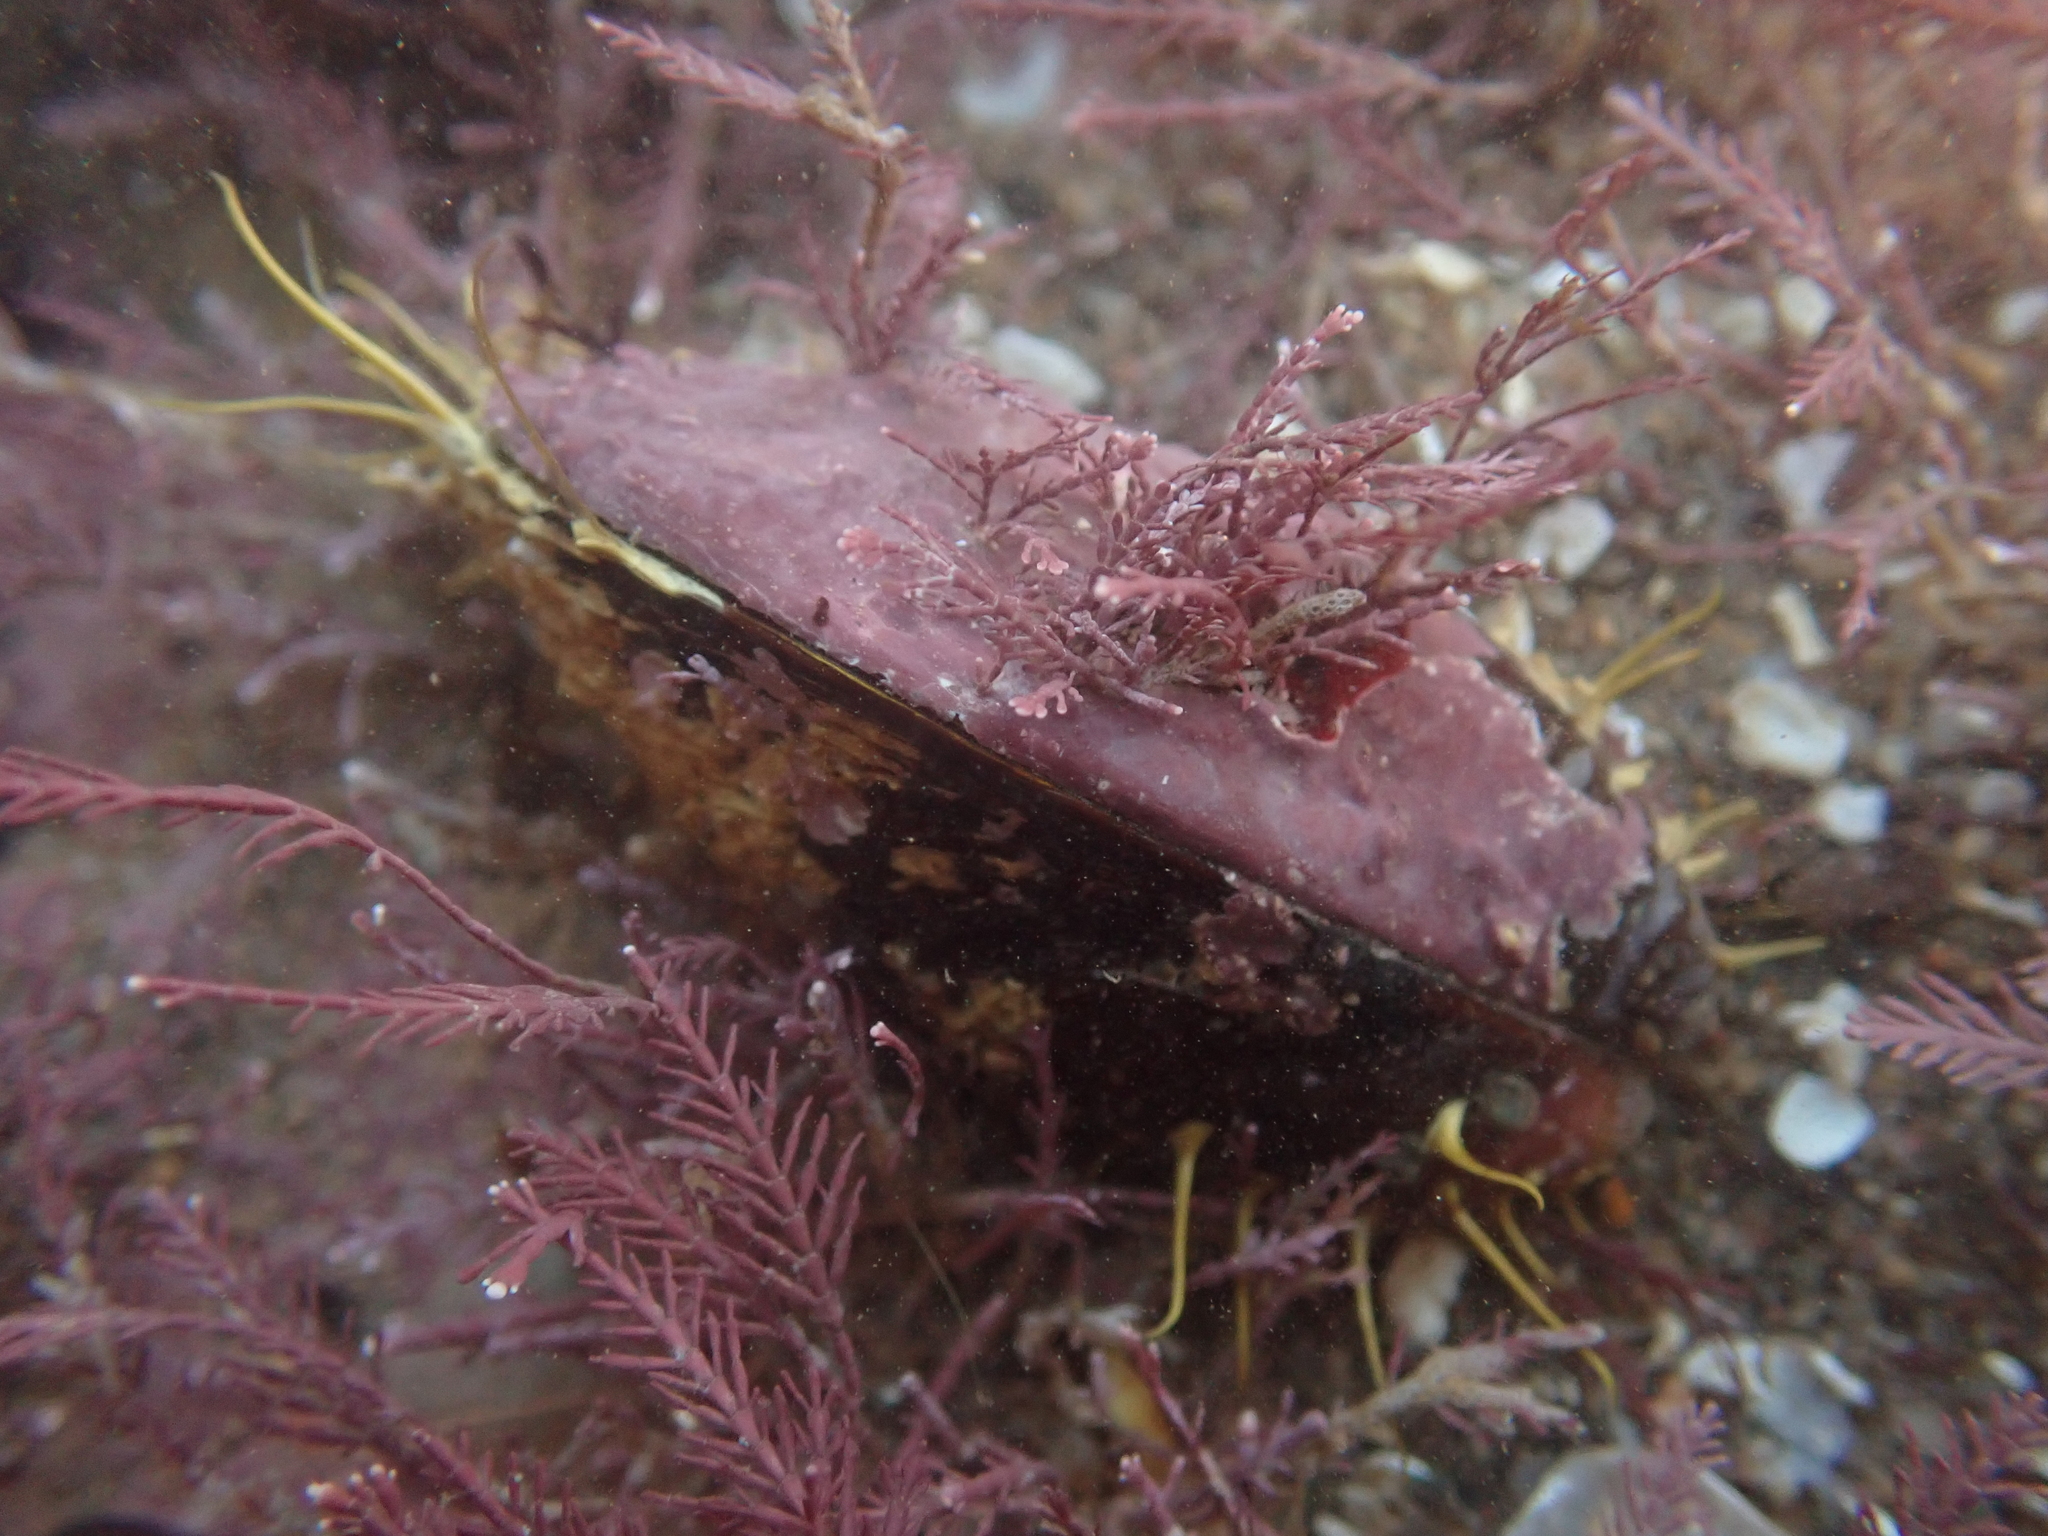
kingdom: Animalia
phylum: Mollusca
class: Bivalvia
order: Mytilida
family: Mytilidae
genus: Modiolus
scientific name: Modiolus modiolus
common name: Horse-mussel
